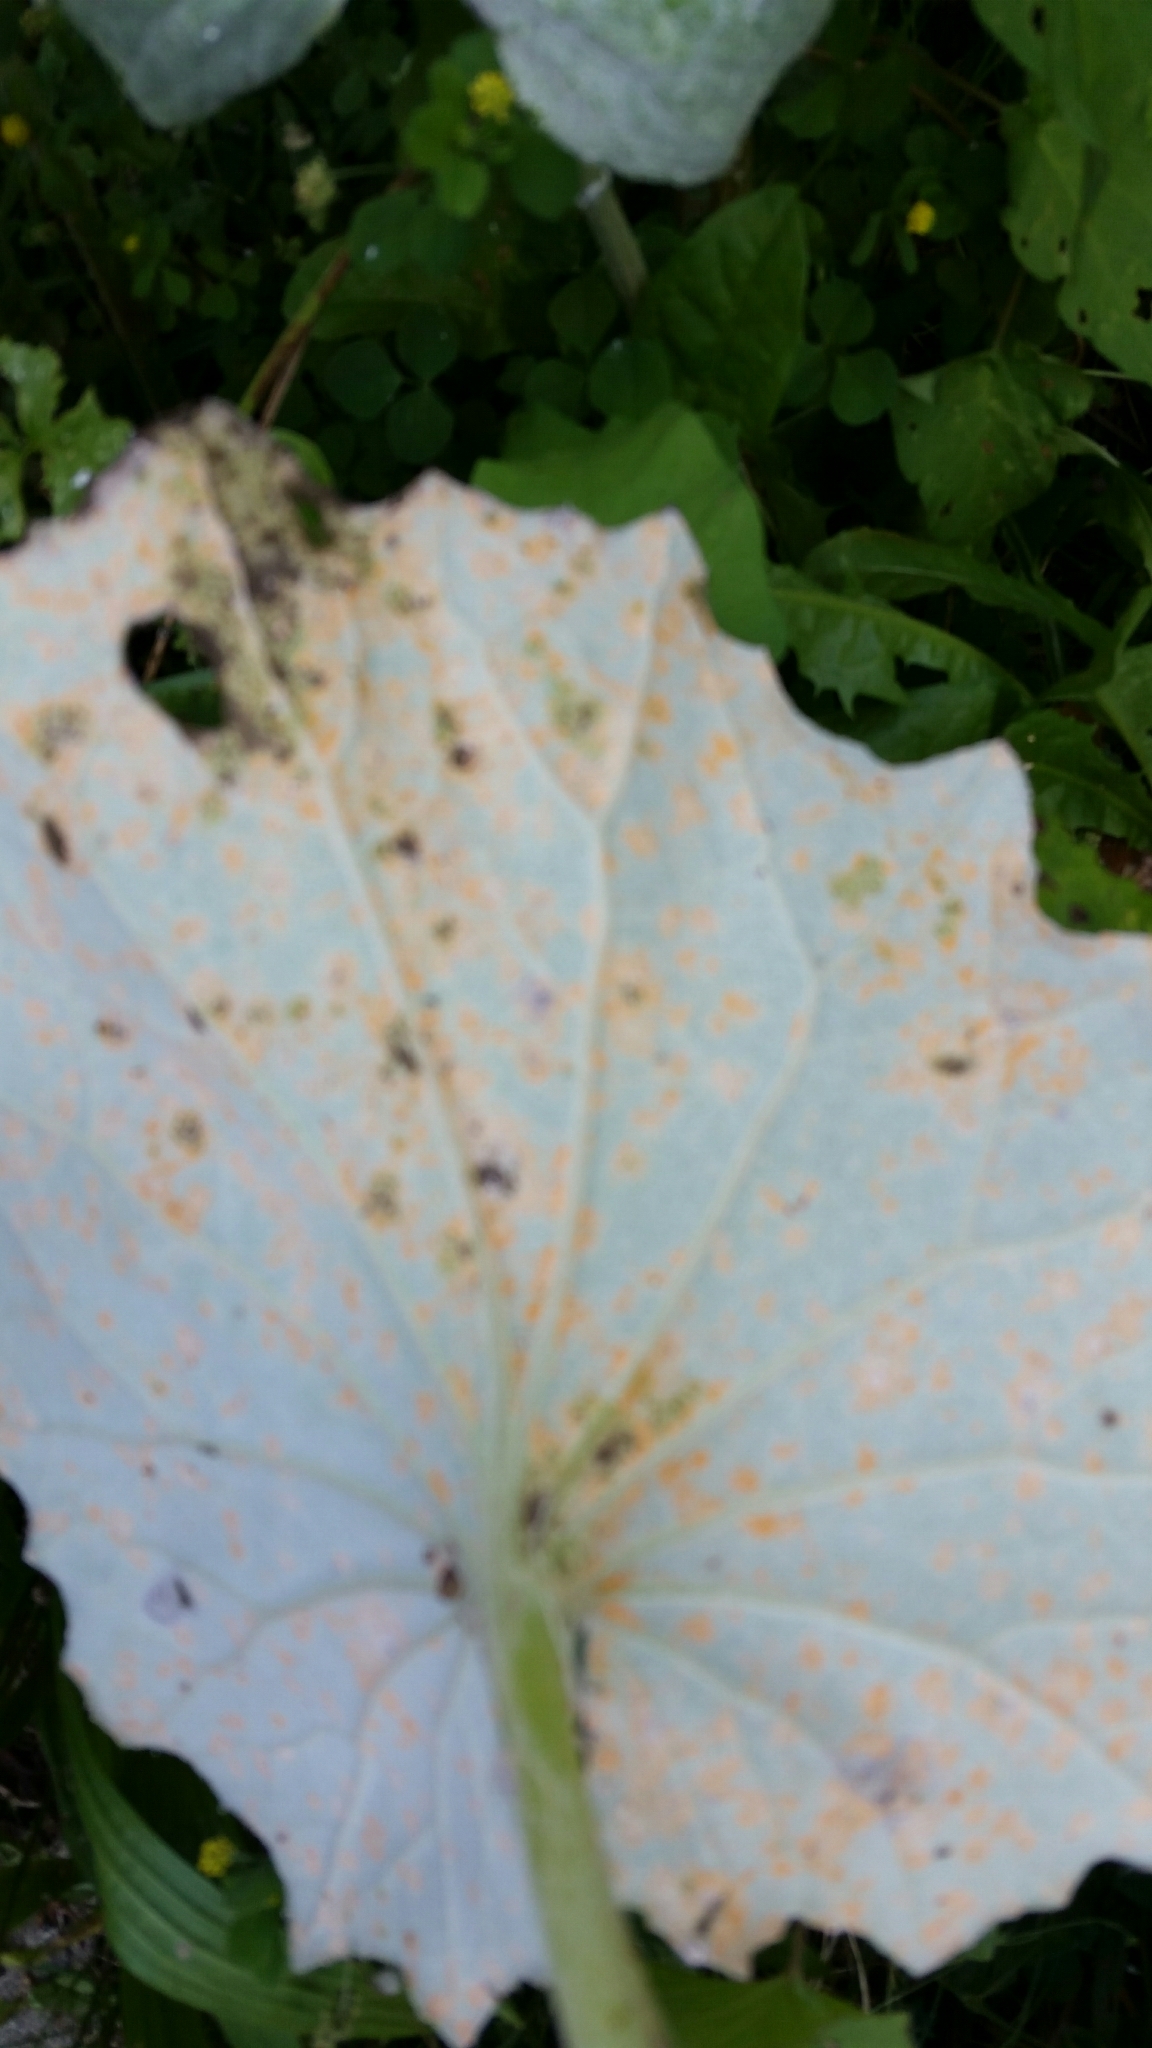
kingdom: Fungi
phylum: Basidiomycota
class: Pucciniomycetes
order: Pucciniales
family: Coleosporiaceae
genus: Coleosporium
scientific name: Coleosporium tussilaginis
